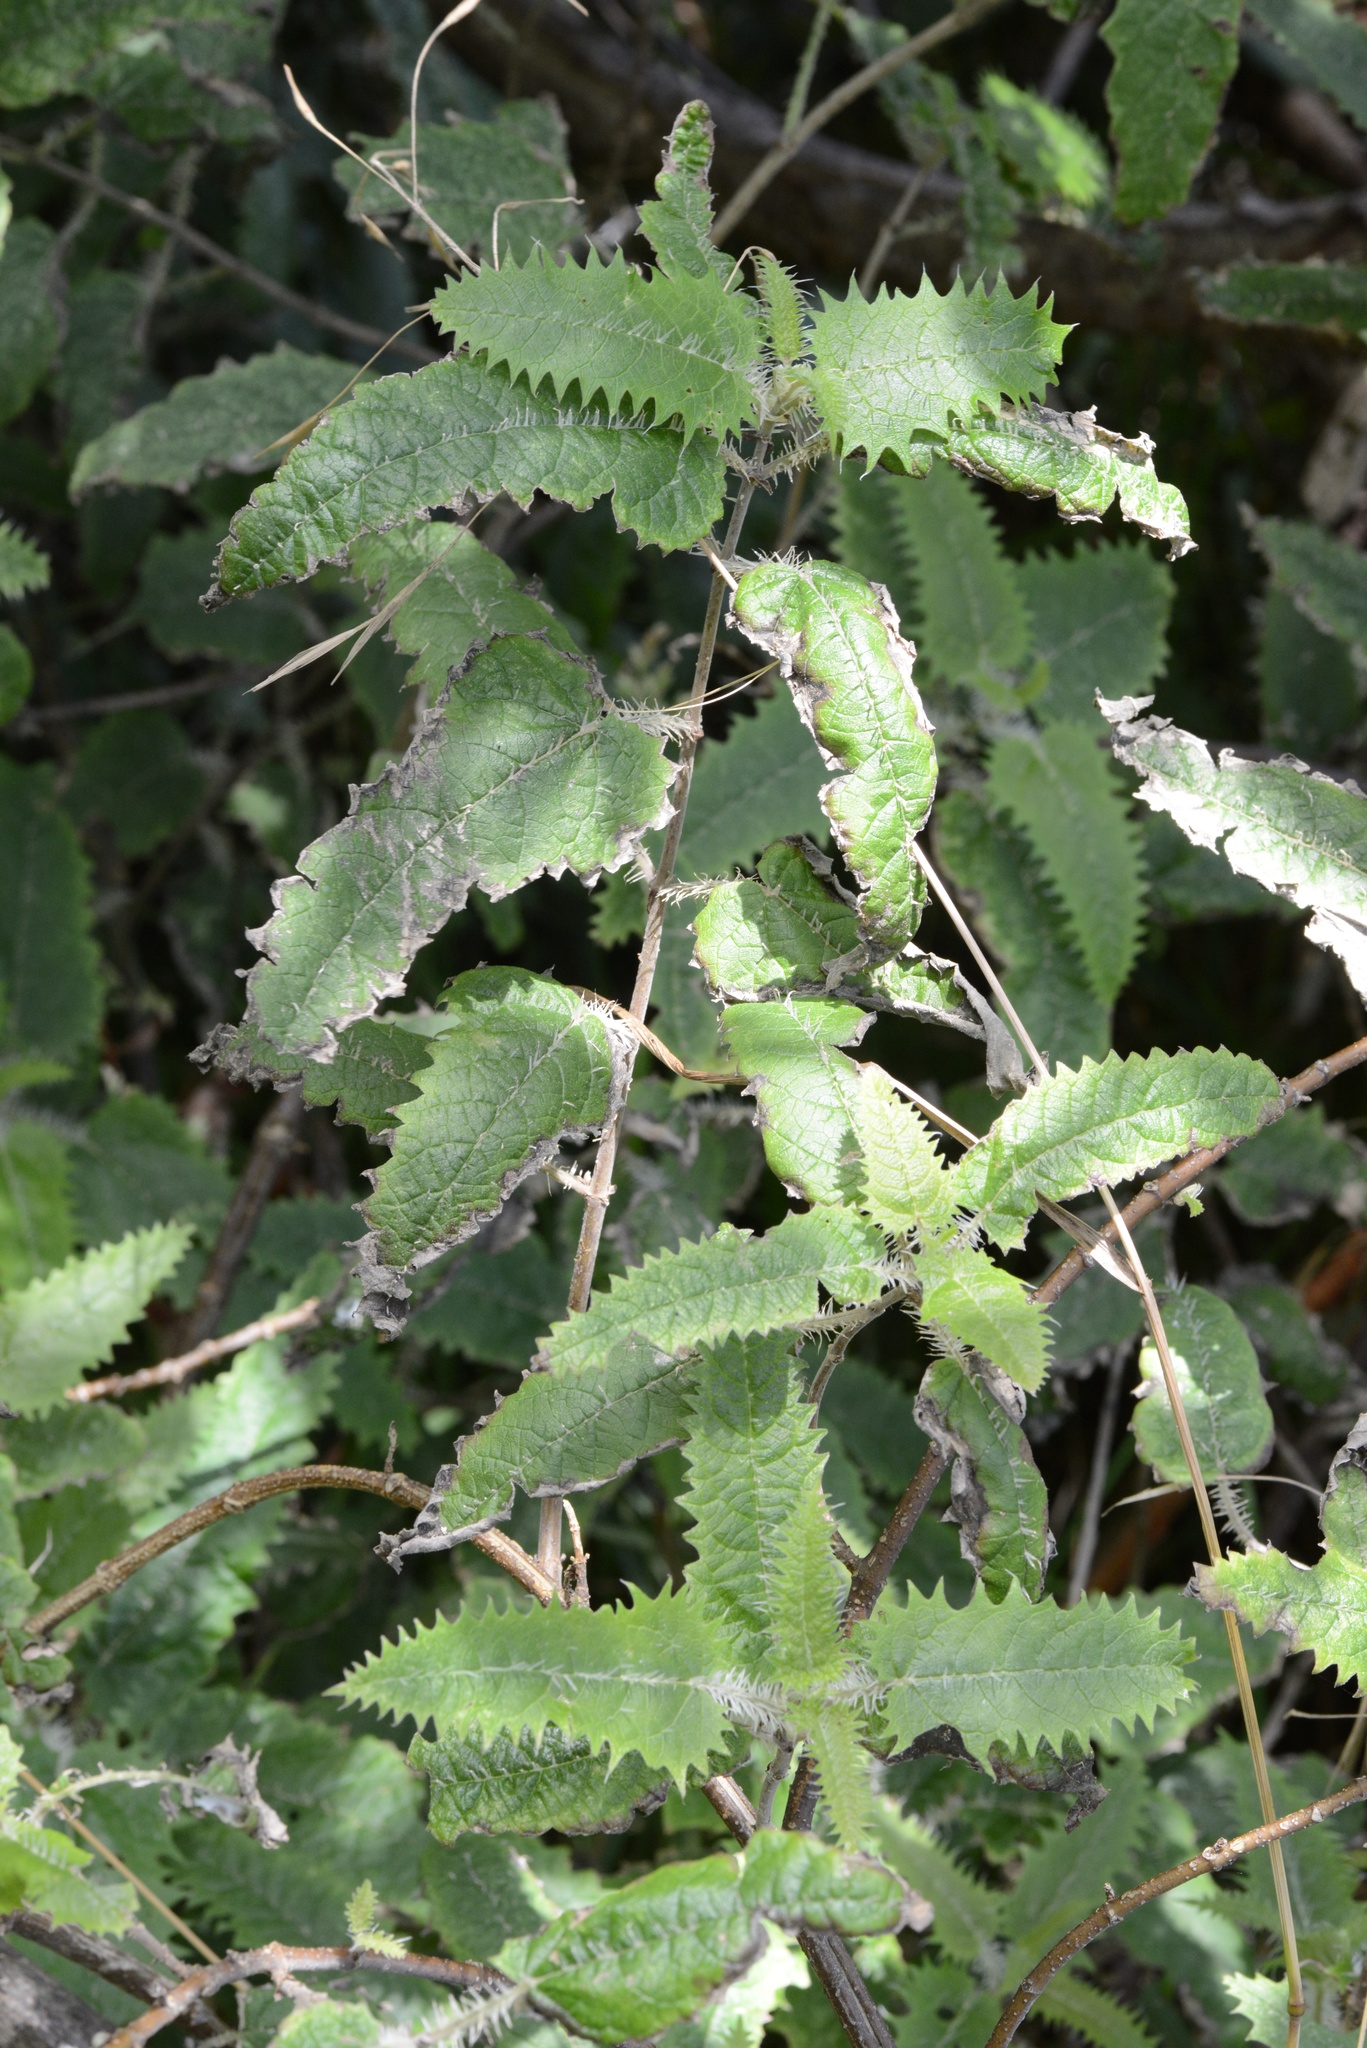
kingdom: Plantae
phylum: Tracheophyta
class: Magnoliopsida
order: Rosales
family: Urticaceae
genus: Urtica
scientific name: Urtica ferox
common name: Tree nettle
